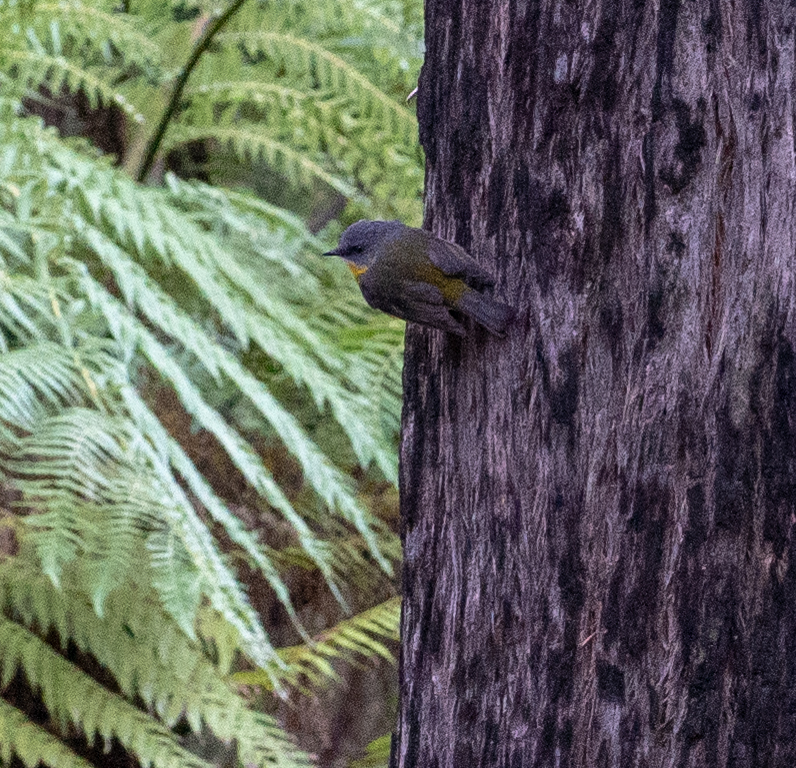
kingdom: Animalia
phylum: Chordata
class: Aves
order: Passeriformes
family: Petroicidae
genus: Eopsaltria
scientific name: Eopsaltria australis
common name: Eastern yellow robin
